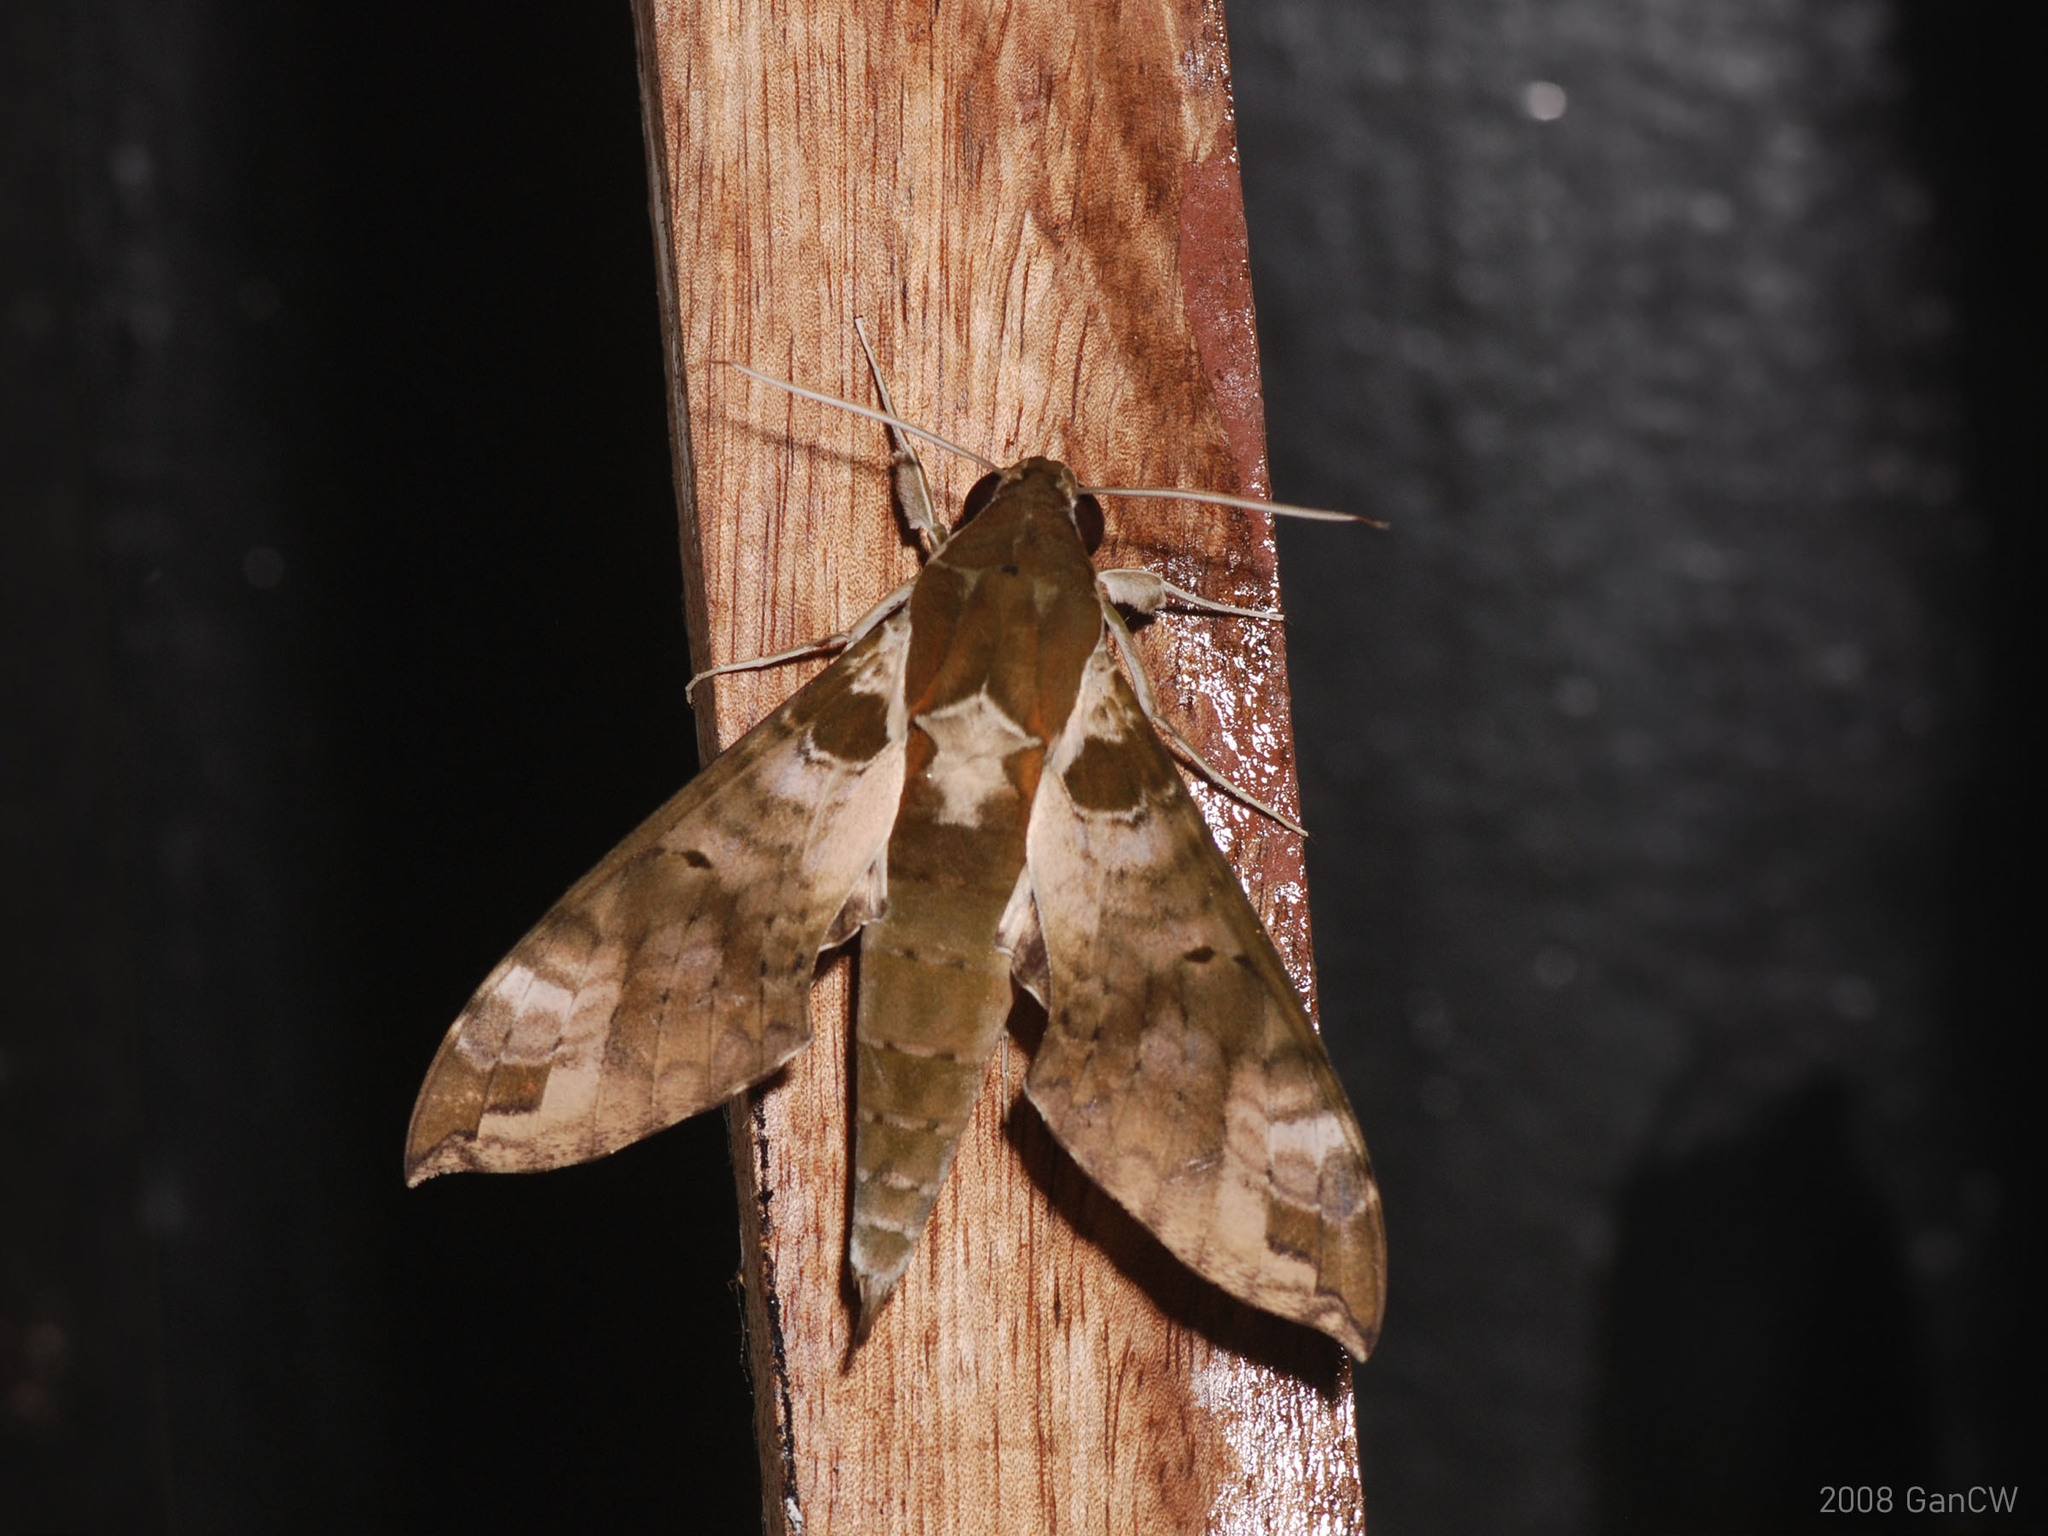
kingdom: Animalia
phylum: Arthropoda
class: Insecta
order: Lepidoptera
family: Sphingidae
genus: Cechenena
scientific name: Cechenena helops
